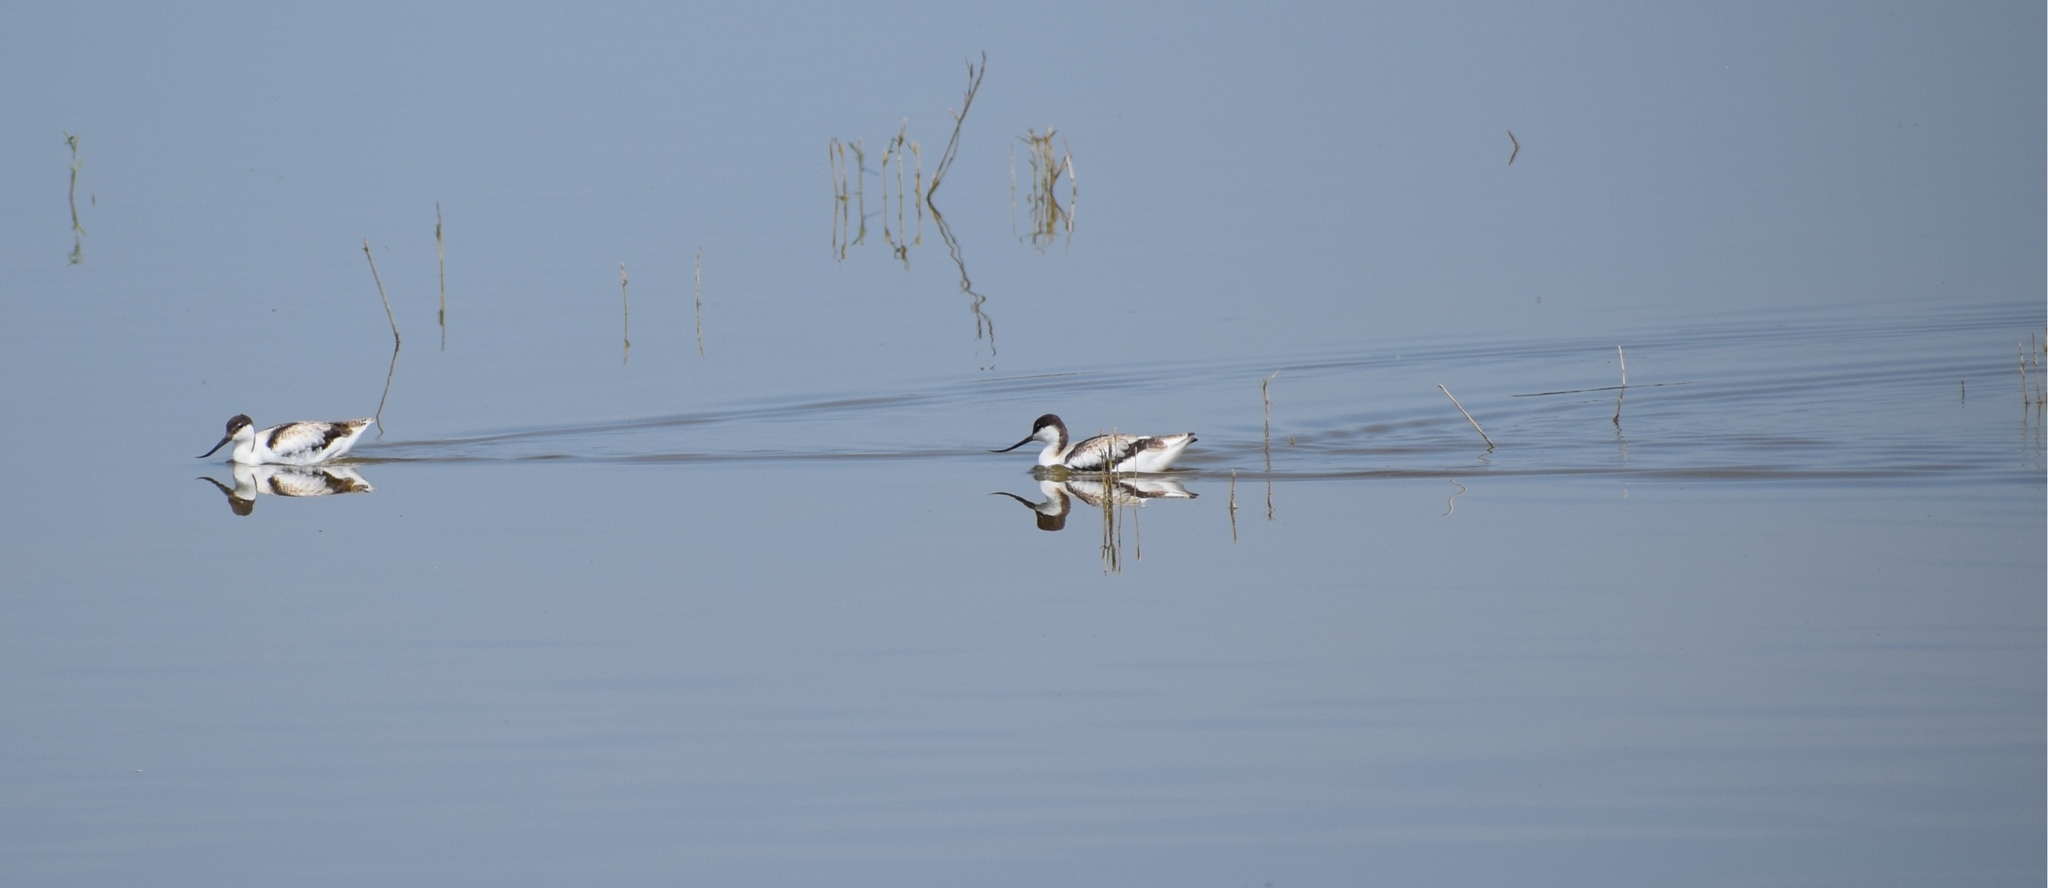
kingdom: Animalia
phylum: Chordata
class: Aves
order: Charadriiformes
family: Recurvirostridae
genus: Recurvirostra
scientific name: Recurvirostra avosetta
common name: Pied avocet
